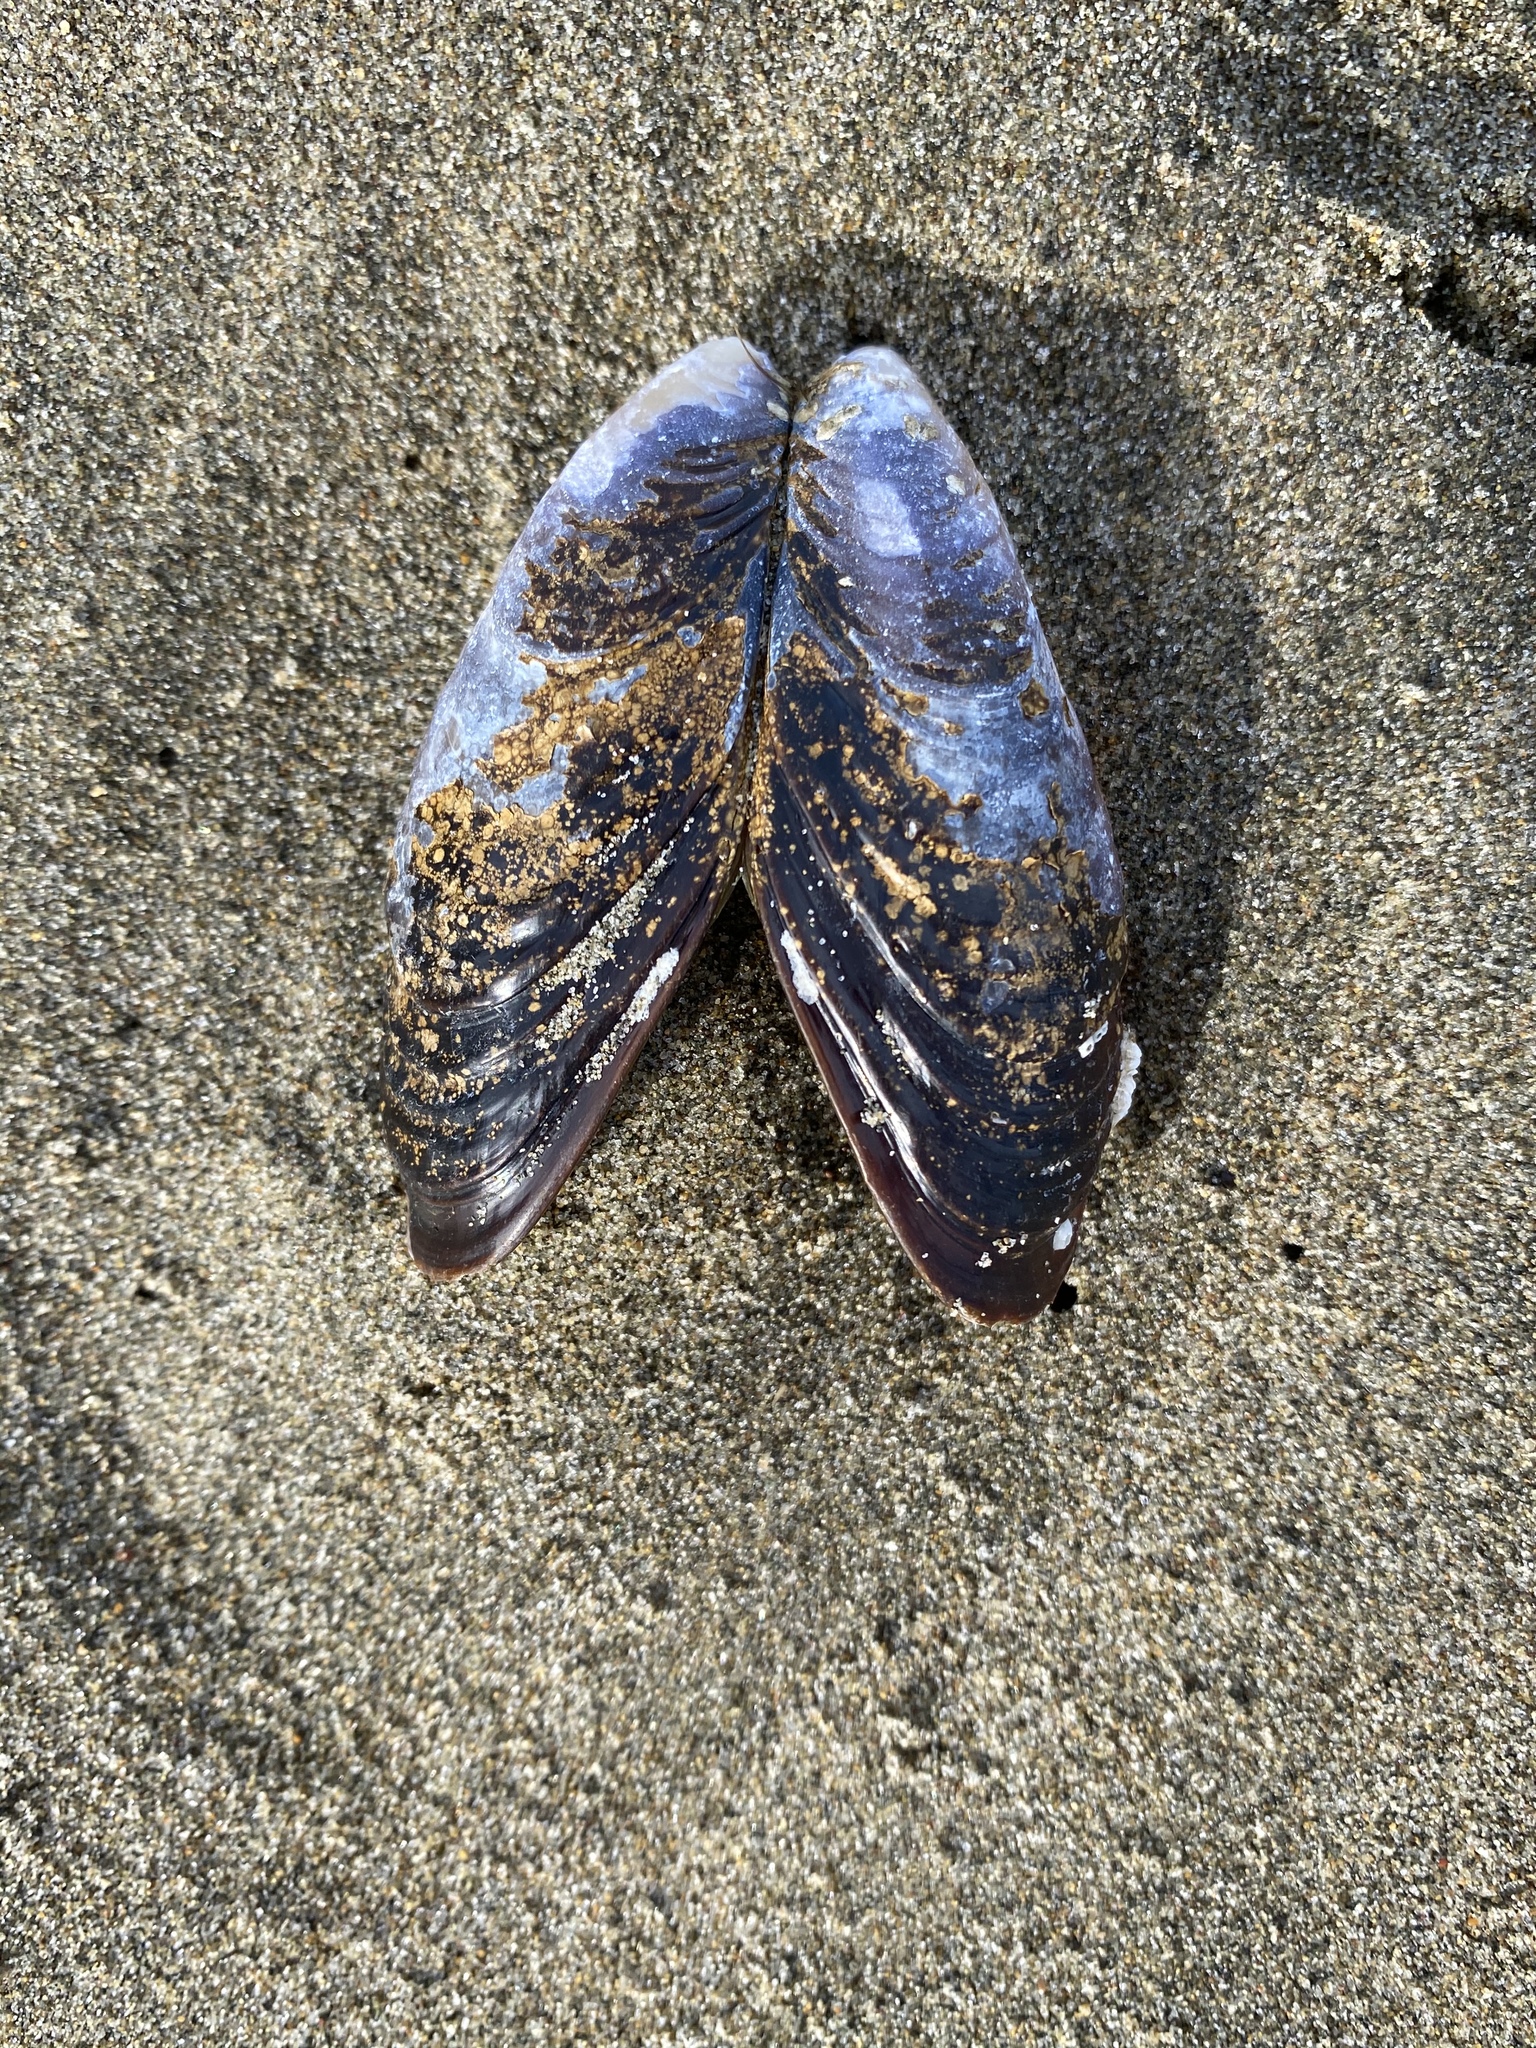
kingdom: Animalia
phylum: Mollusca
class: Bivalvia
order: Mytilida
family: Mytilidae
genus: Mytilus
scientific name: Mytilus californianus
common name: California mussel
